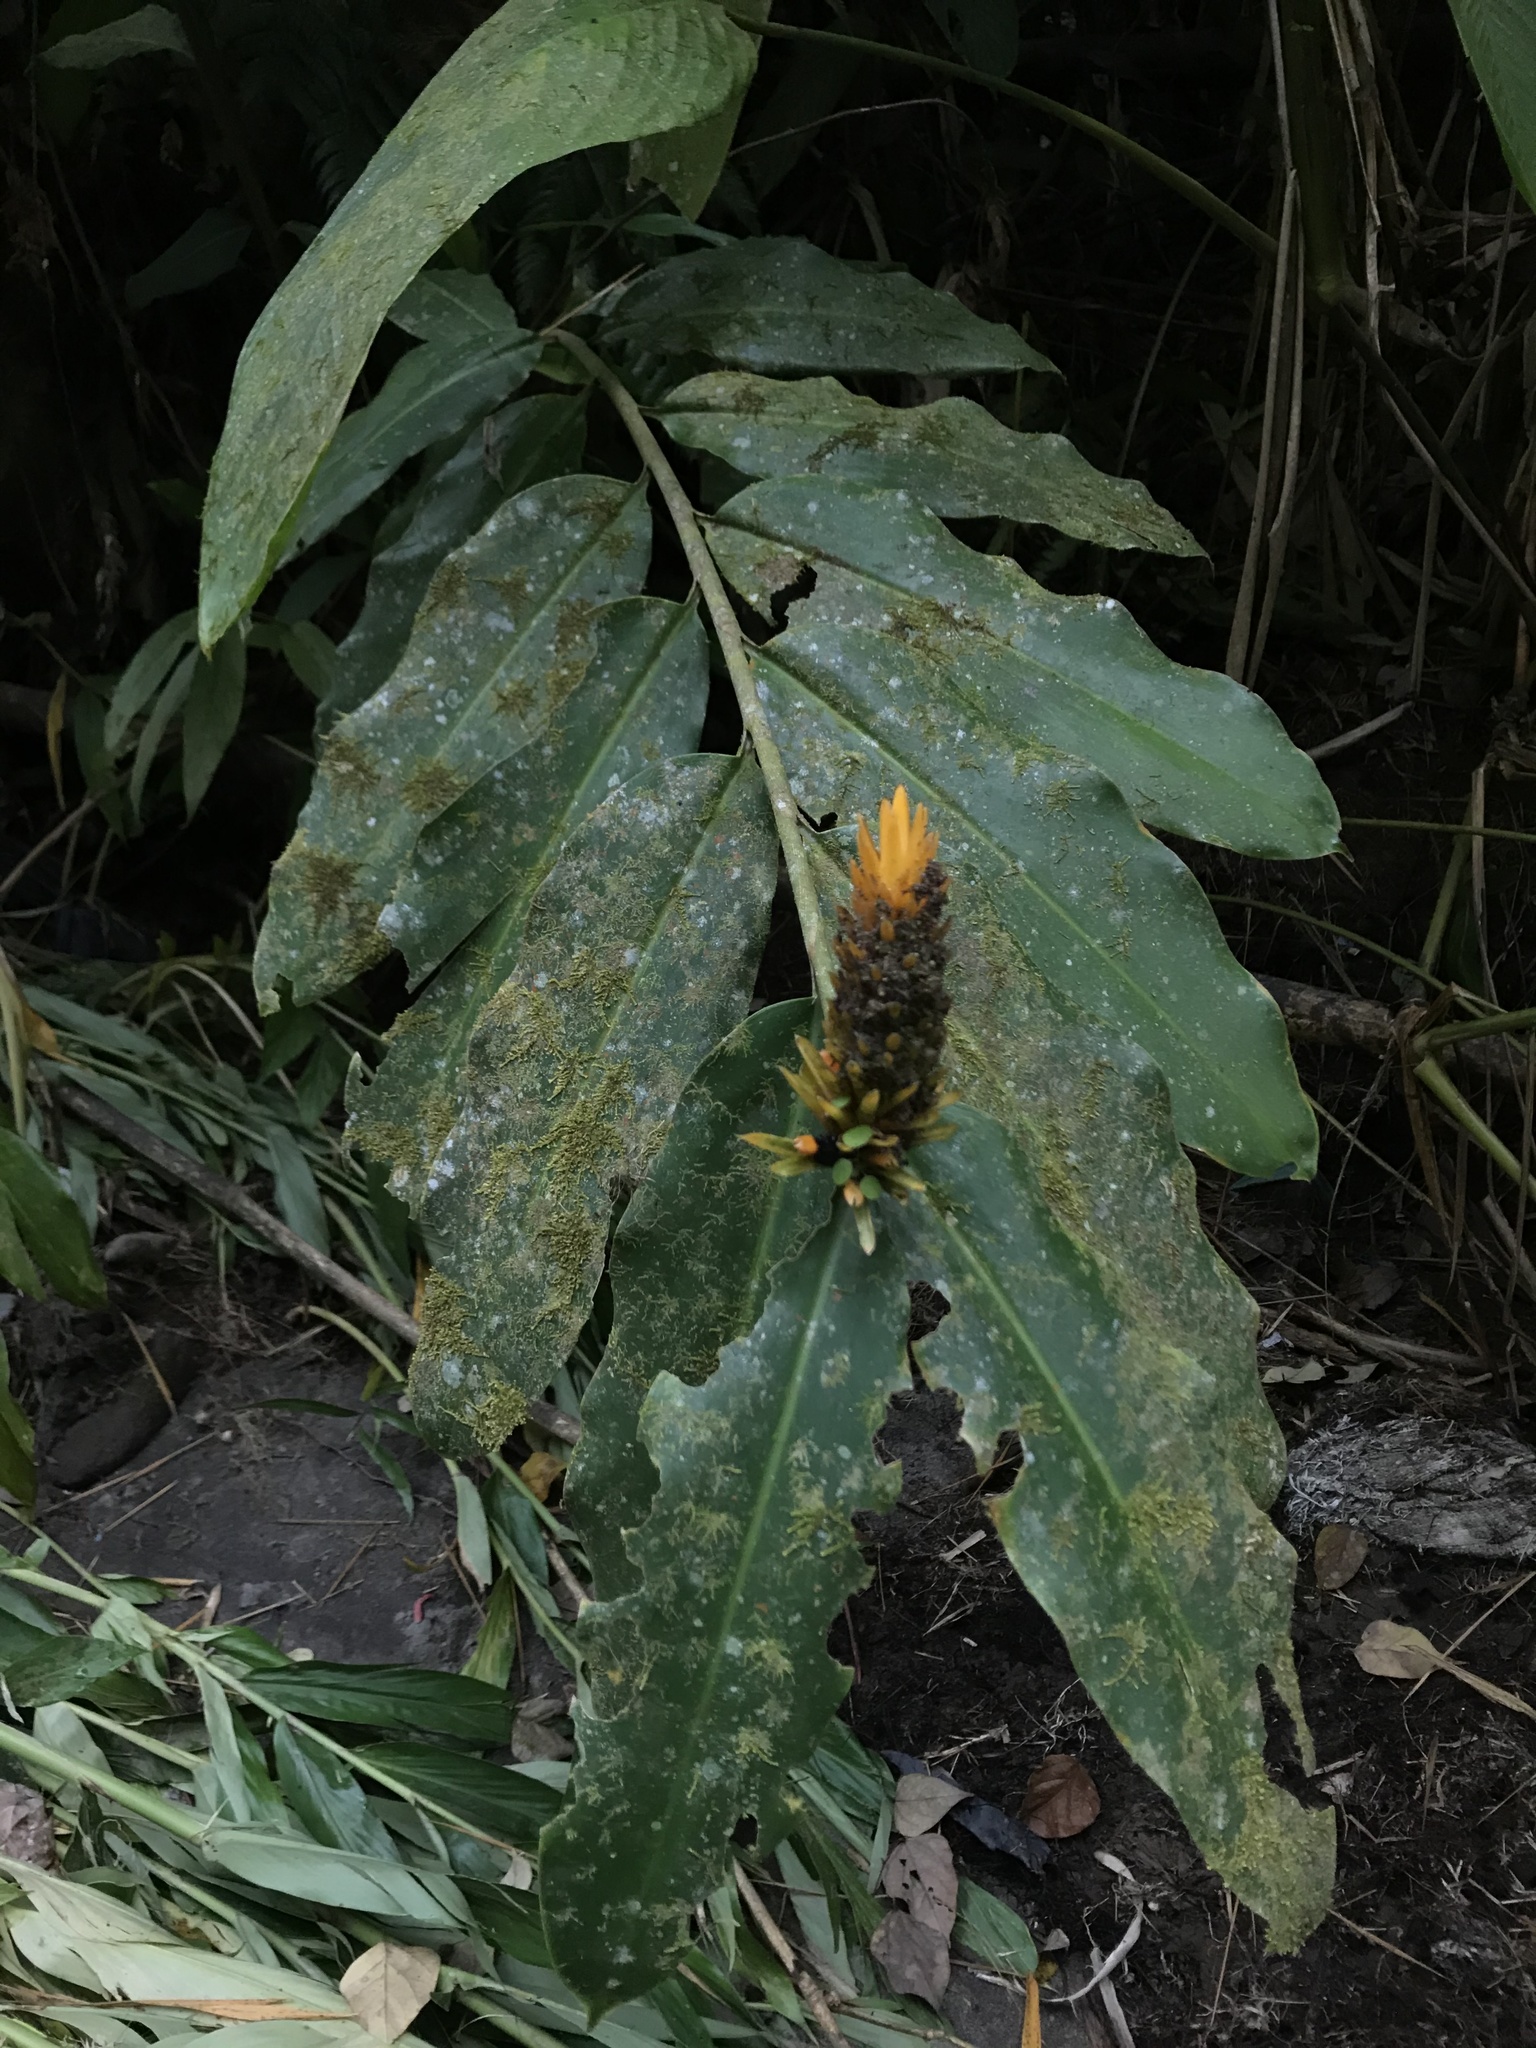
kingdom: Plantae
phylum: Tracheophyta
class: Liliopsida
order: Zingiberales
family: Zingiberaceae
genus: Renealmia
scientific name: Renealmia cernua
